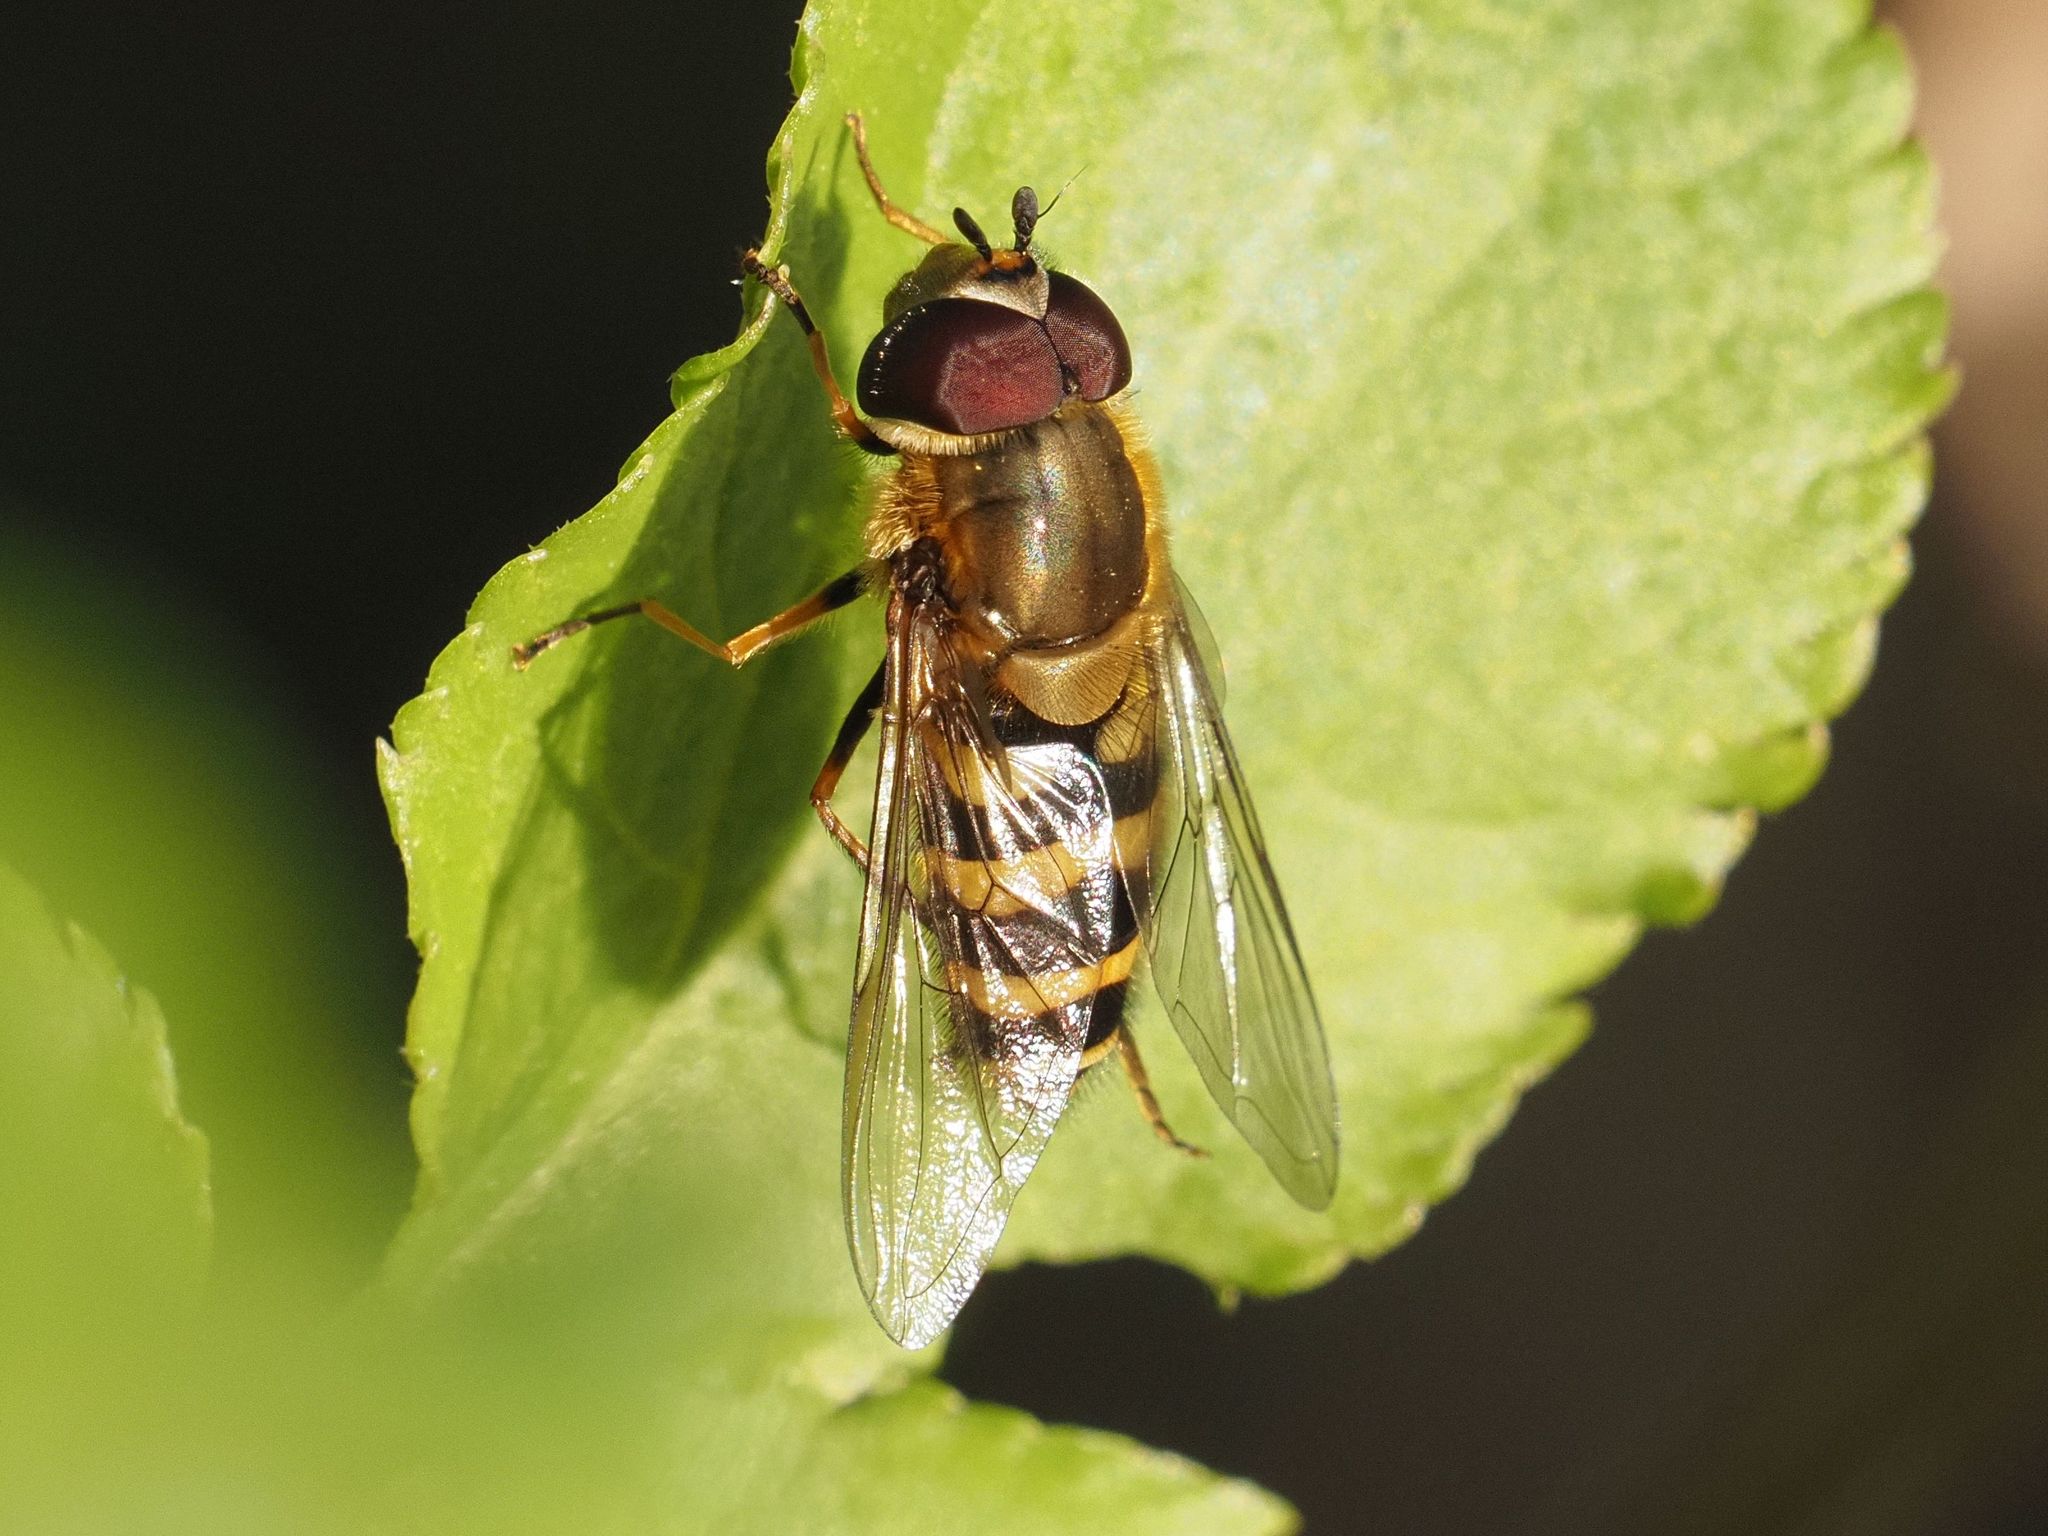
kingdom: Animalia
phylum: Arthropoda
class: Insecta
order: Diptera
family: Syrphidae
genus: Syrphus
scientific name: Syrphus torvus
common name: Hairy-eyed flower fly
